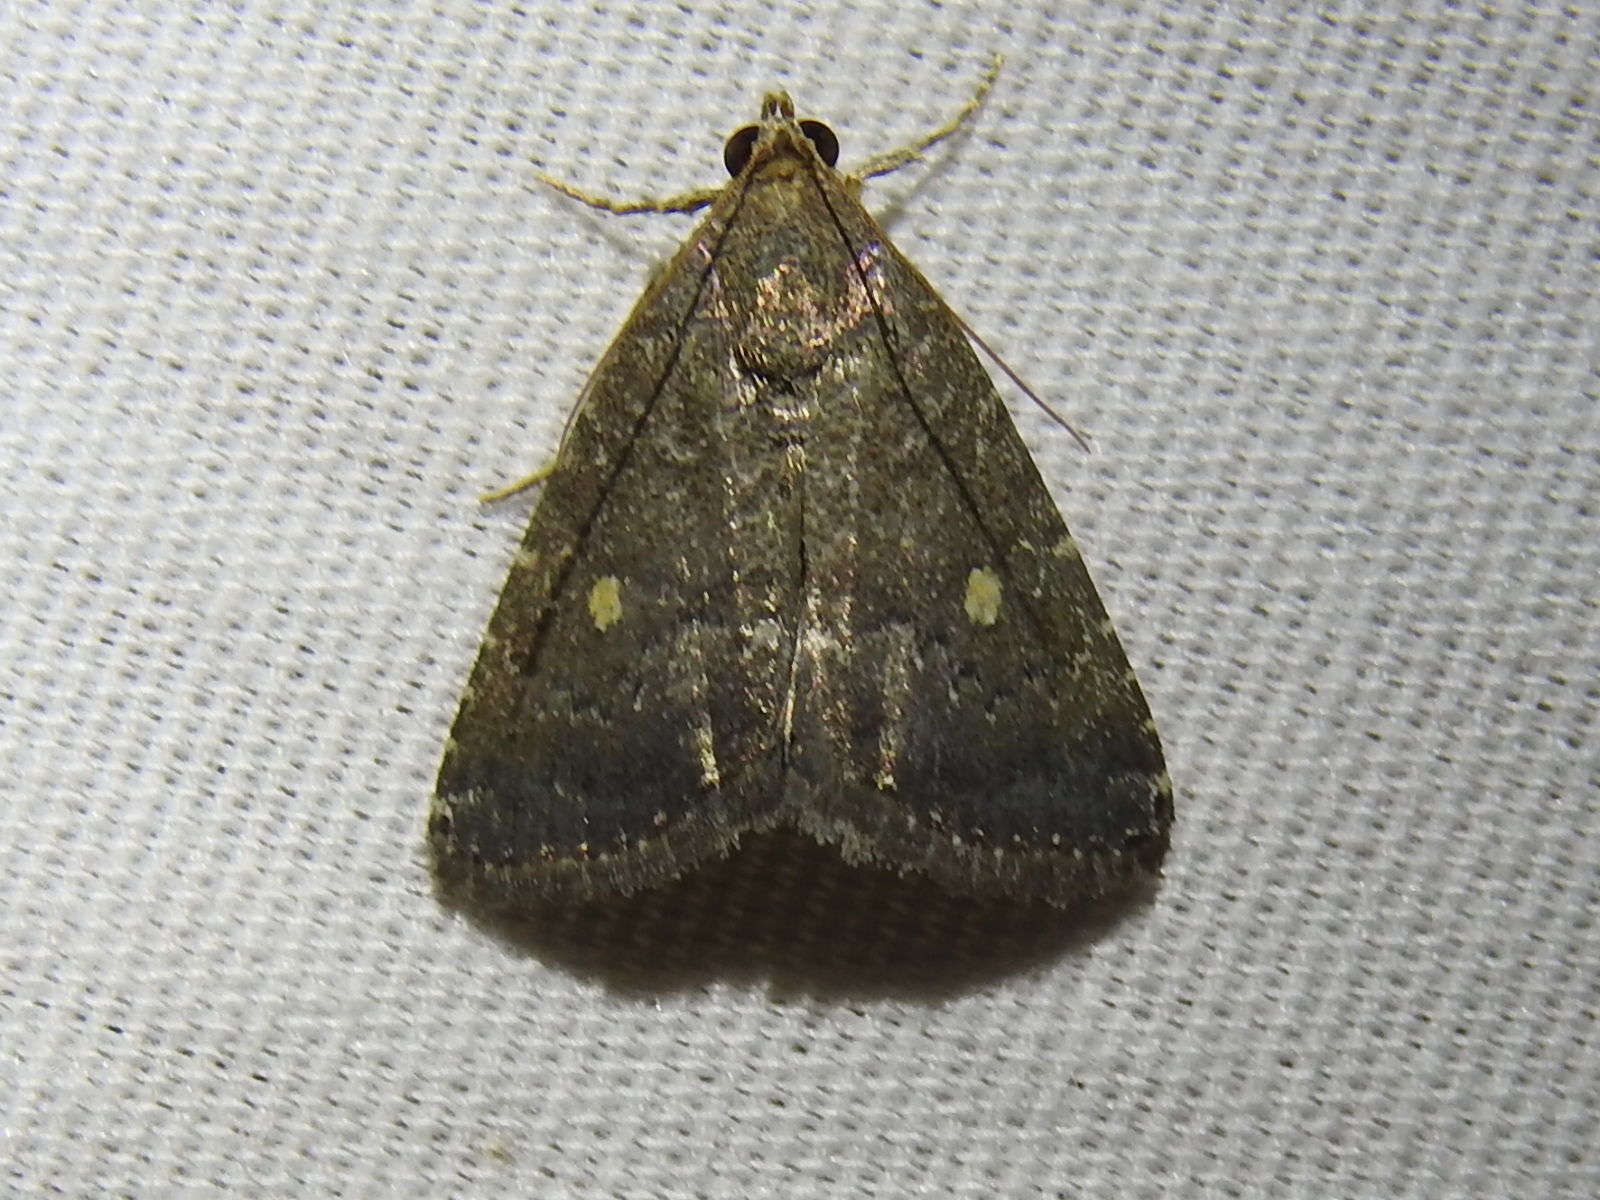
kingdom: Animalia
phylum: Arthropoda
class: Insecta
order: Lepidoptera
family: Noctuidae
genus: Amyna
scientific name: Amyna stricta
